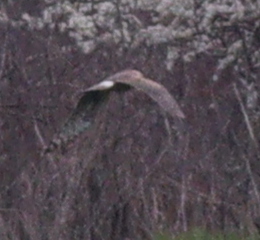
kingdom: Animalia
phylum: Chordata
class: Aves
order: Accipitriformes
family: Accipitridae
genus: Circus
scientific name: Circus cyaneus
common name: Hen harrier
